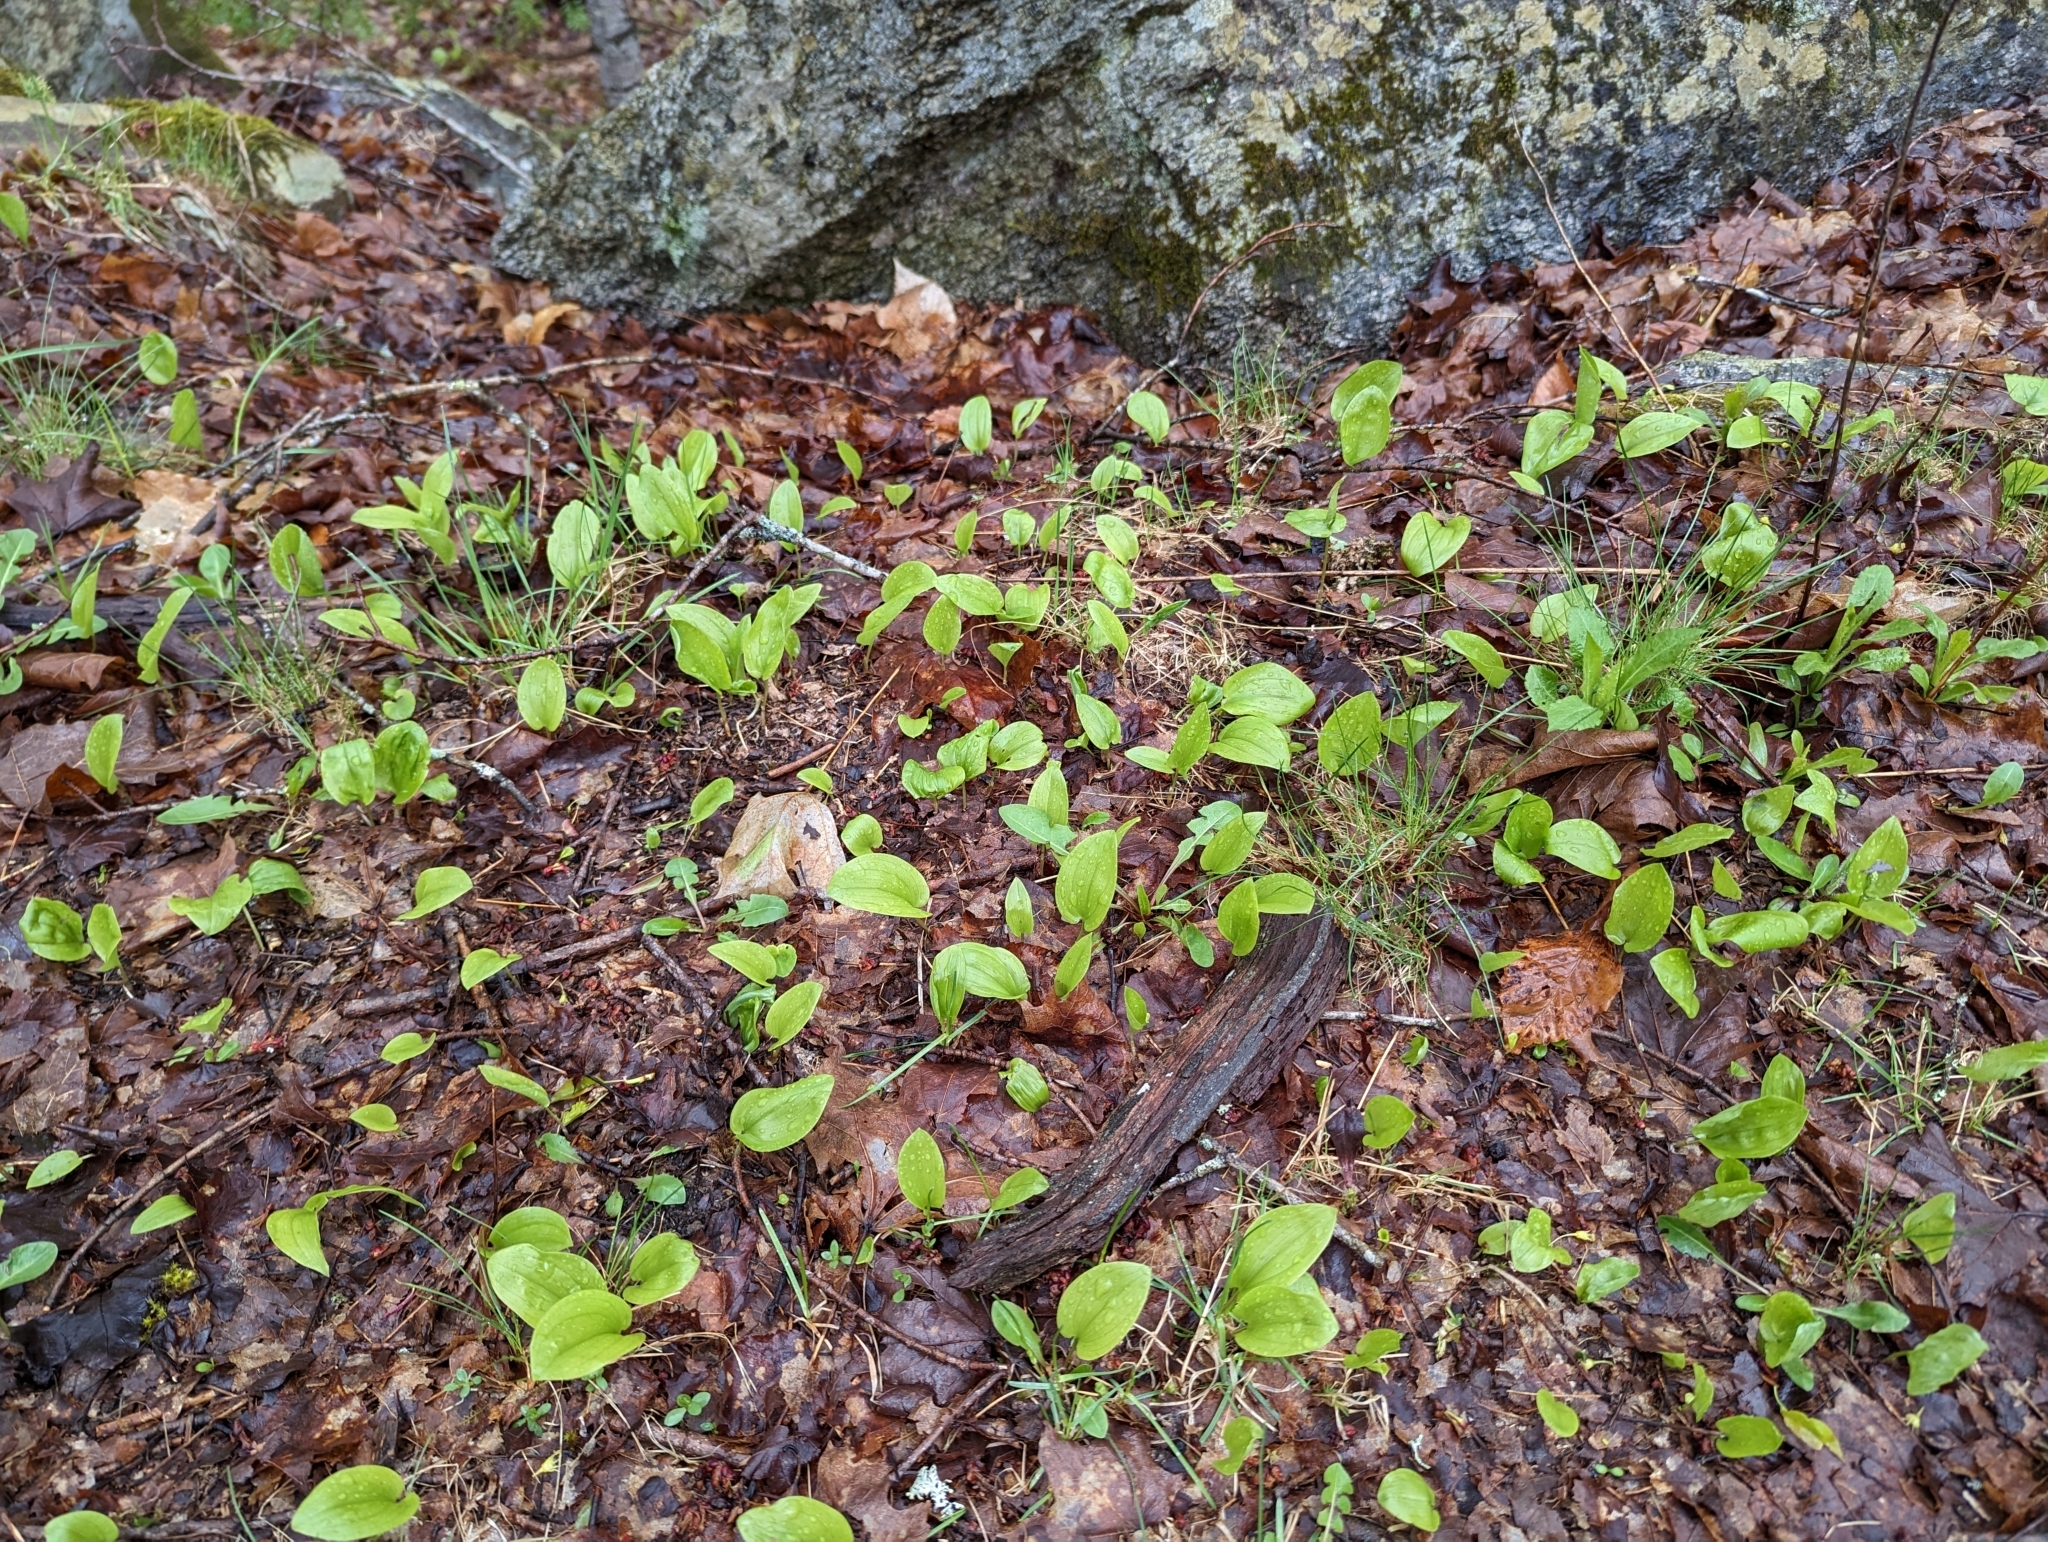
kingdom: Plantae
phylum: Tracheophyta
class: Liliopsida
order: Asparagales
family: Asparagaceae
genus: Maianthemum
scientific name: Maianthemum canadense
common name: False lily-of-the-valley
